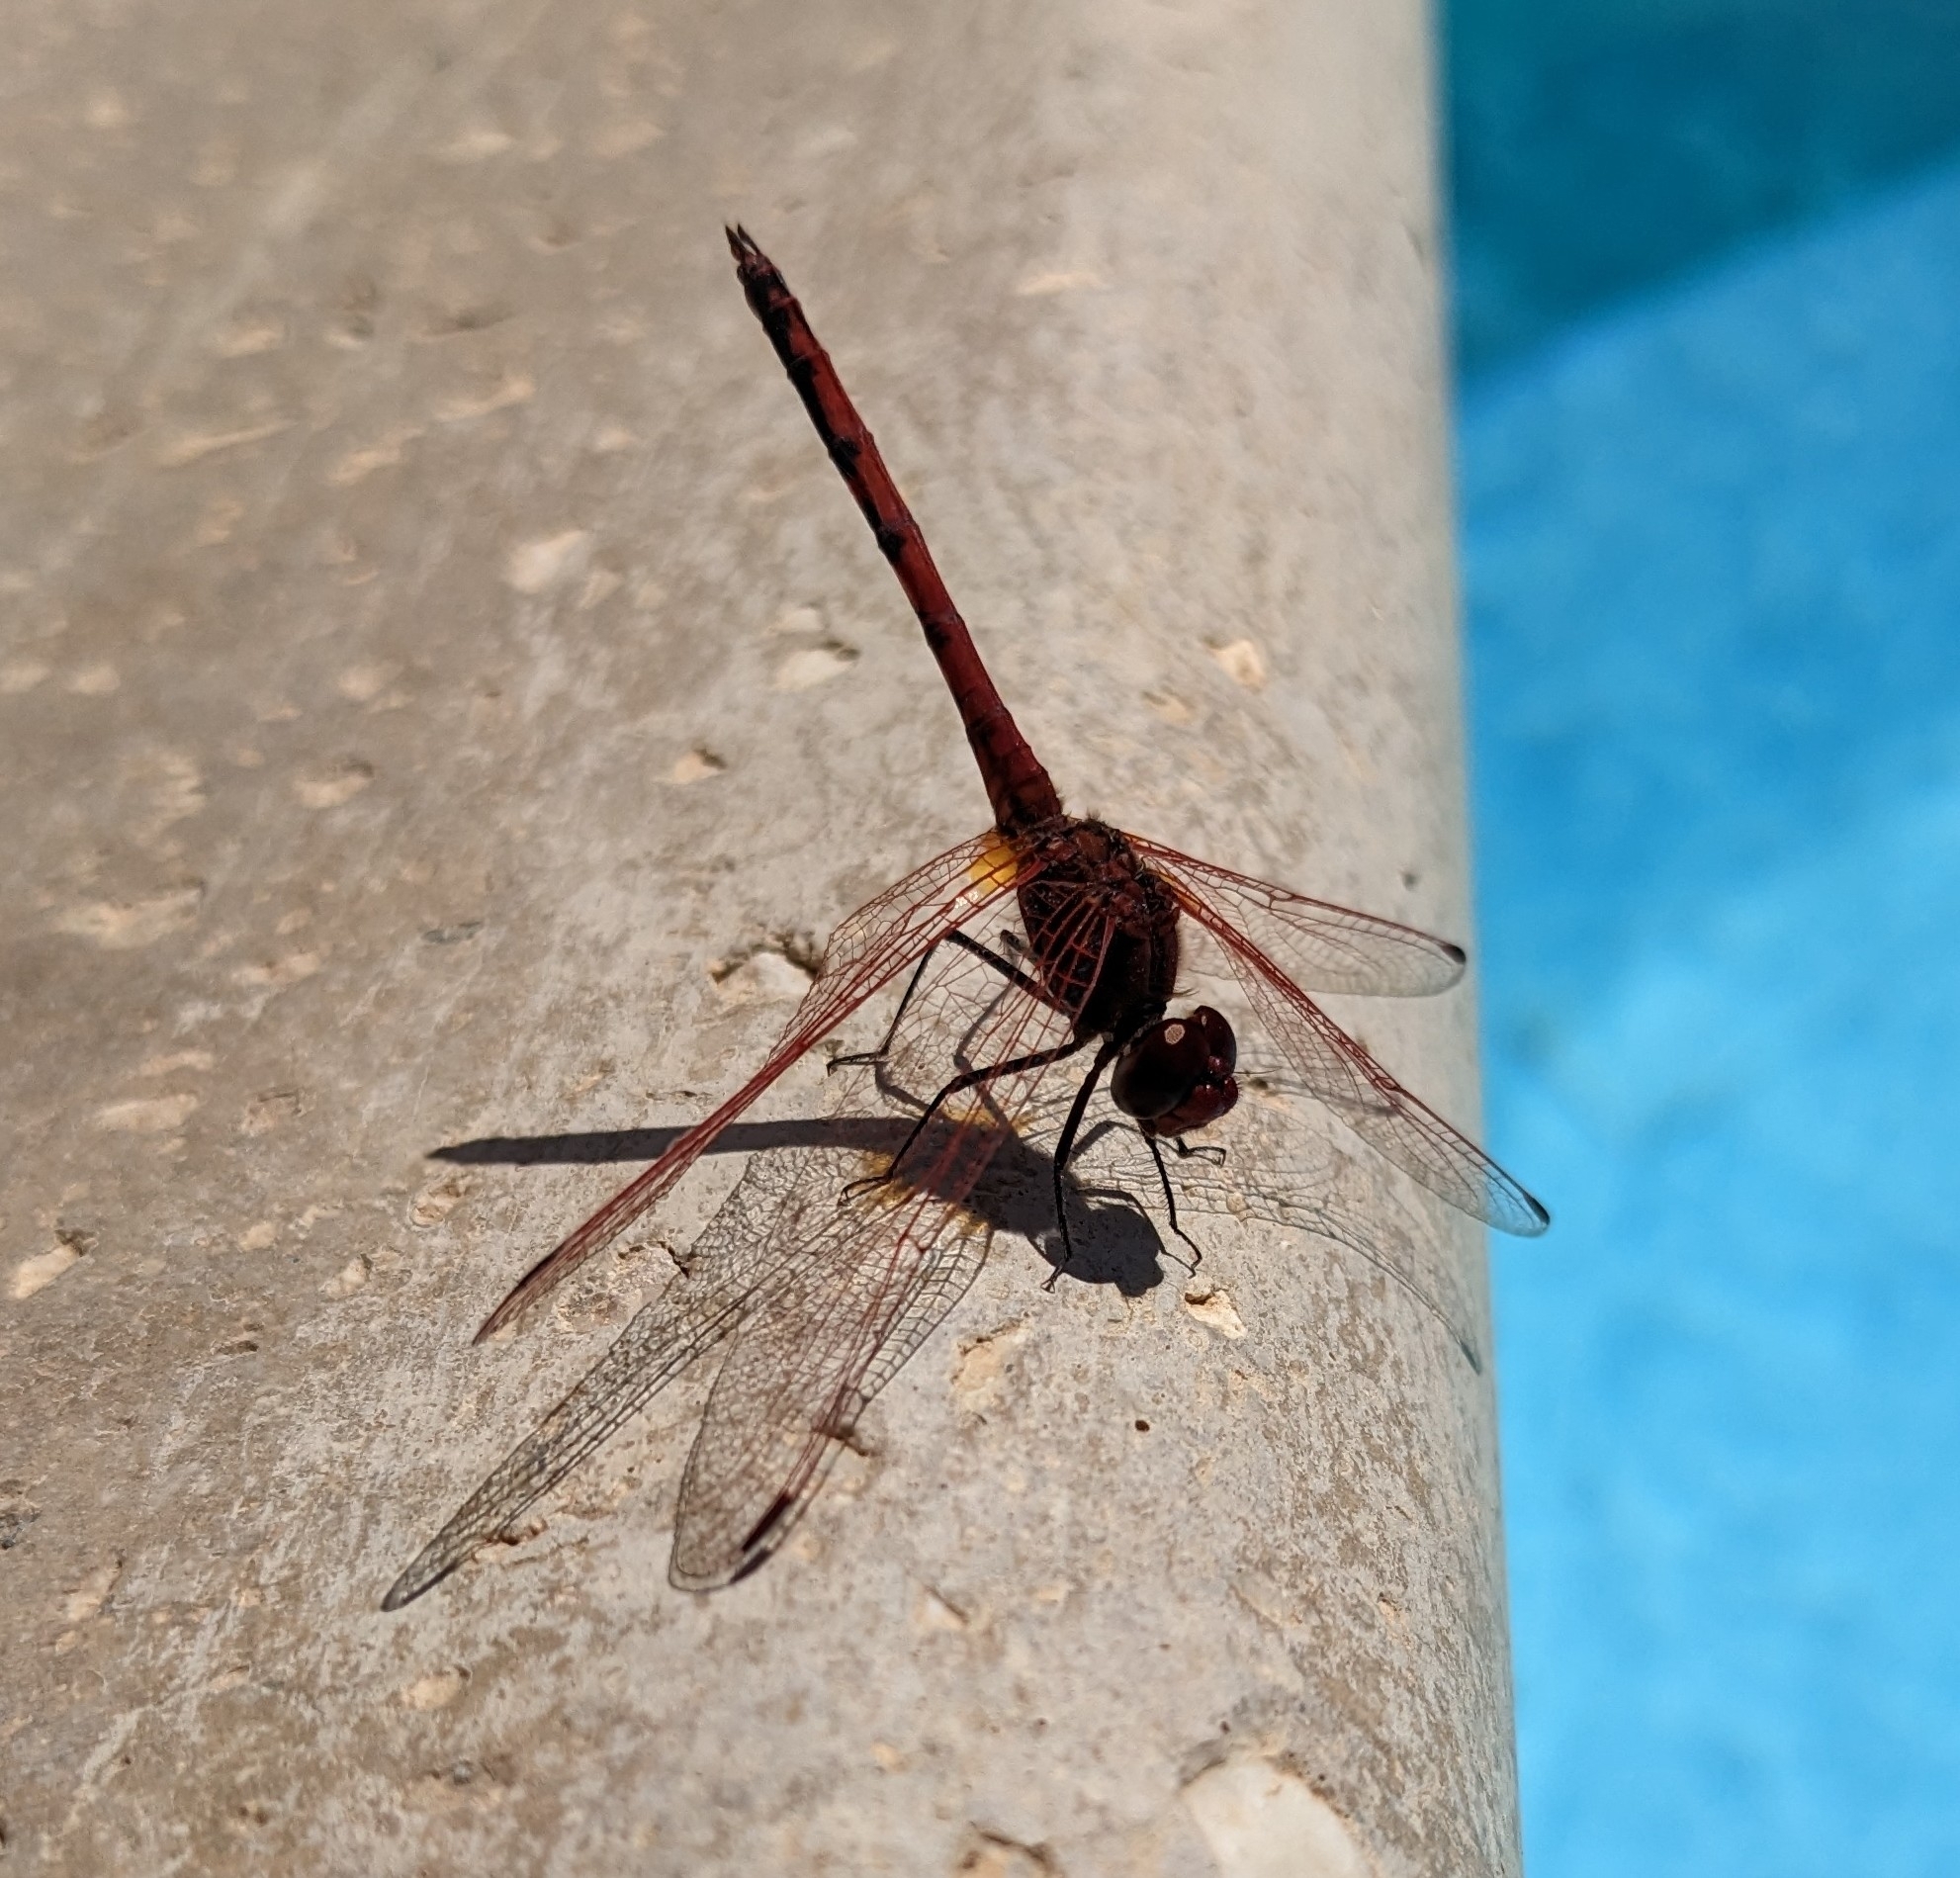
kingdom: Animalia
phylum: Arthropoda
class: Insecta
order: Odonata
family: Libellulidae
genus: Trithemis
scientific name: Trithemis arteriosa
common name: Red-veined dropwing
